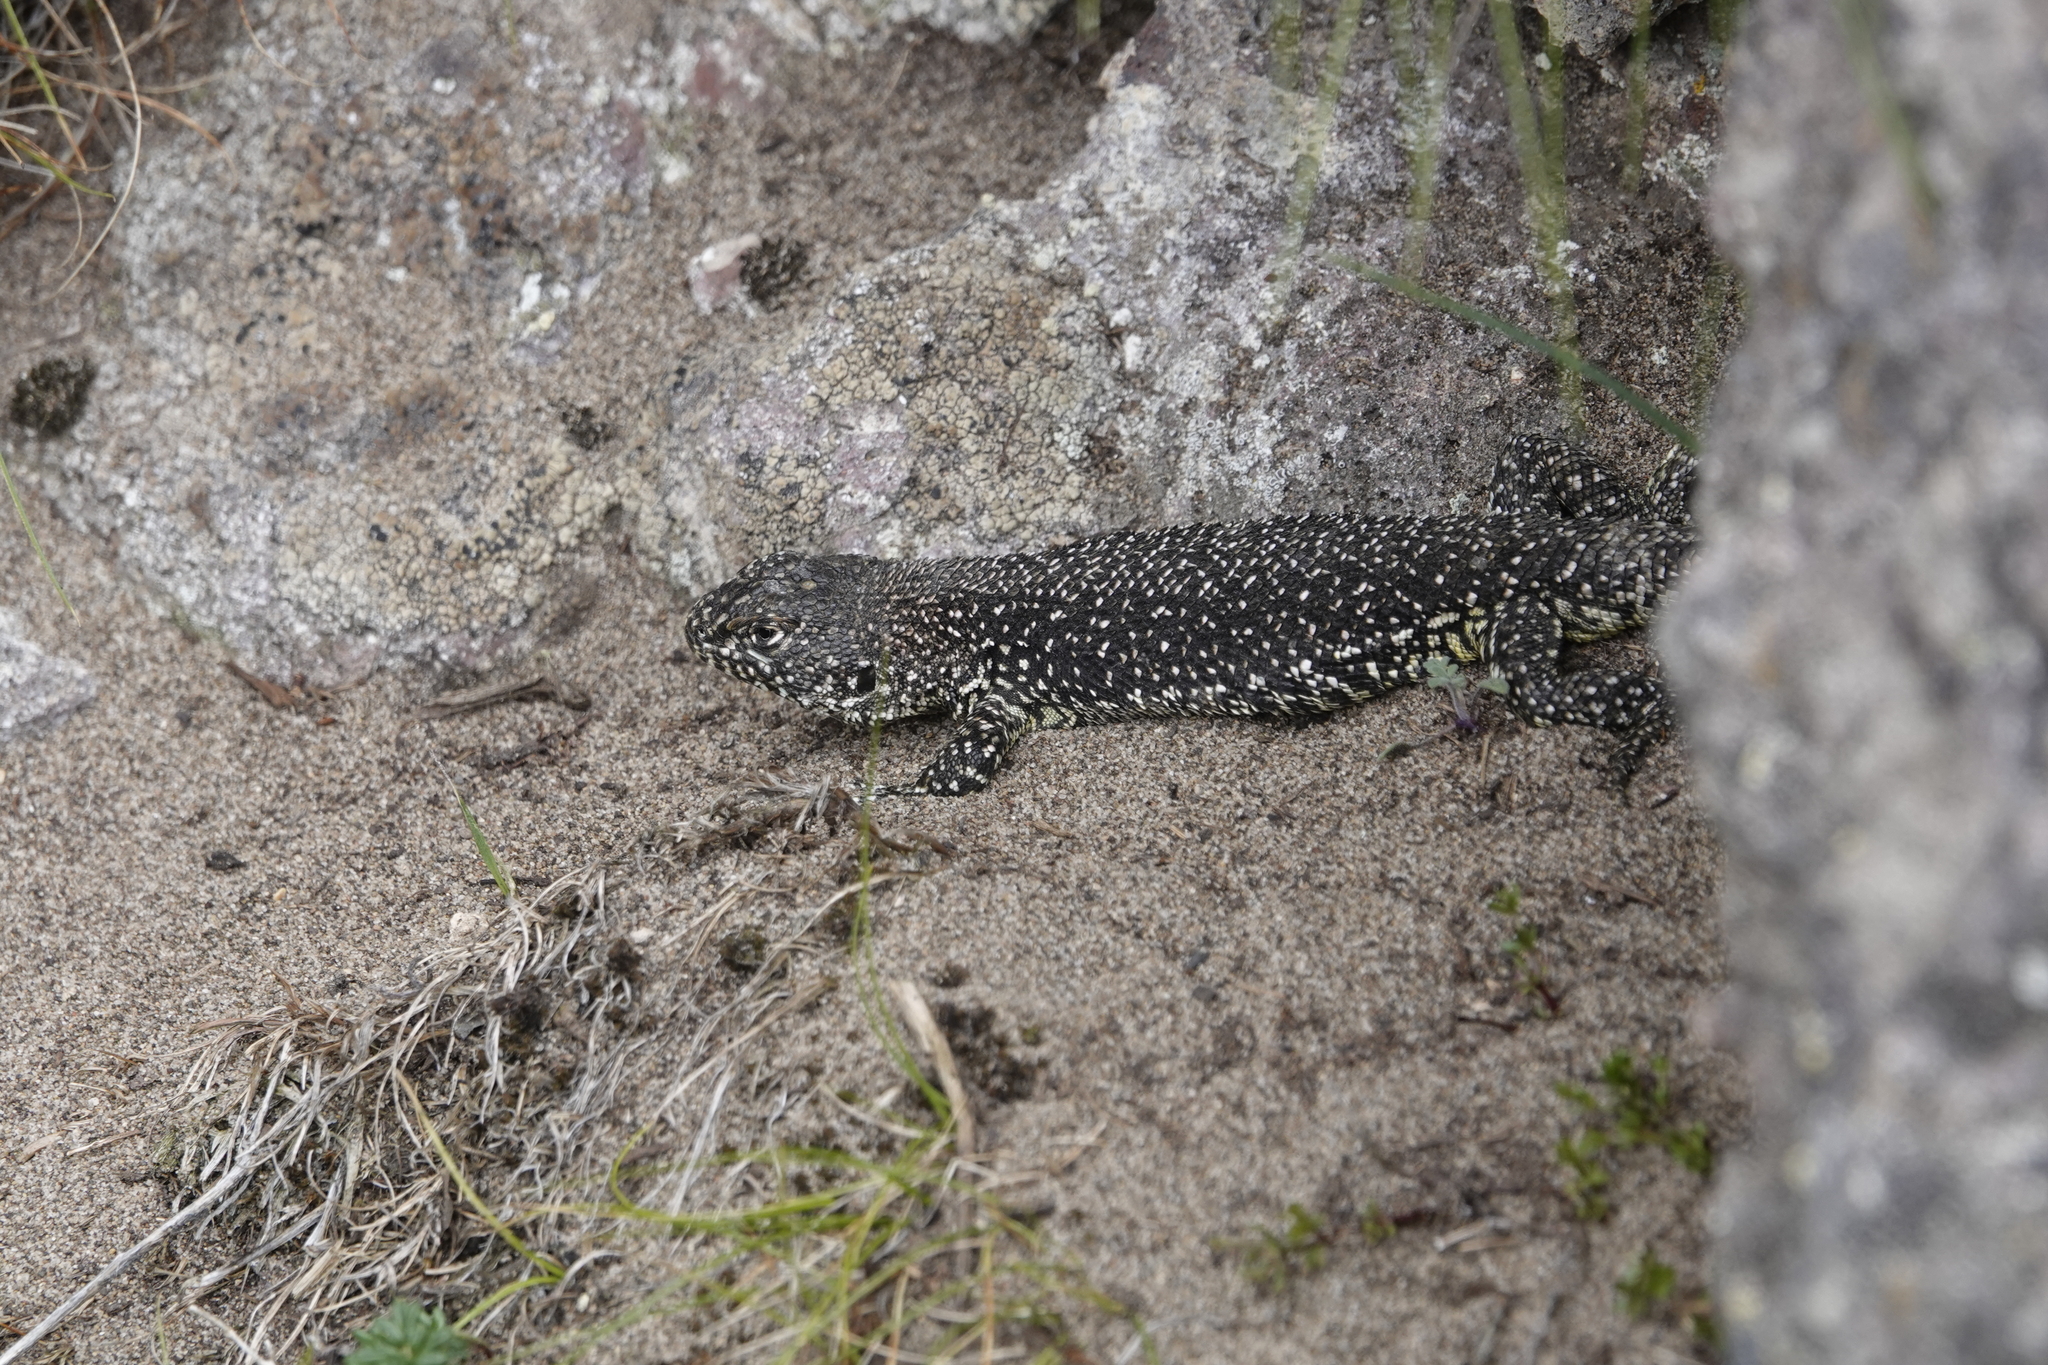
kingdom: Animalia
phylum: Chordata
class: Squamata
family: Liolaemidae
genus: Liolaemus
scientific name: Liolaemus sarmientoi
